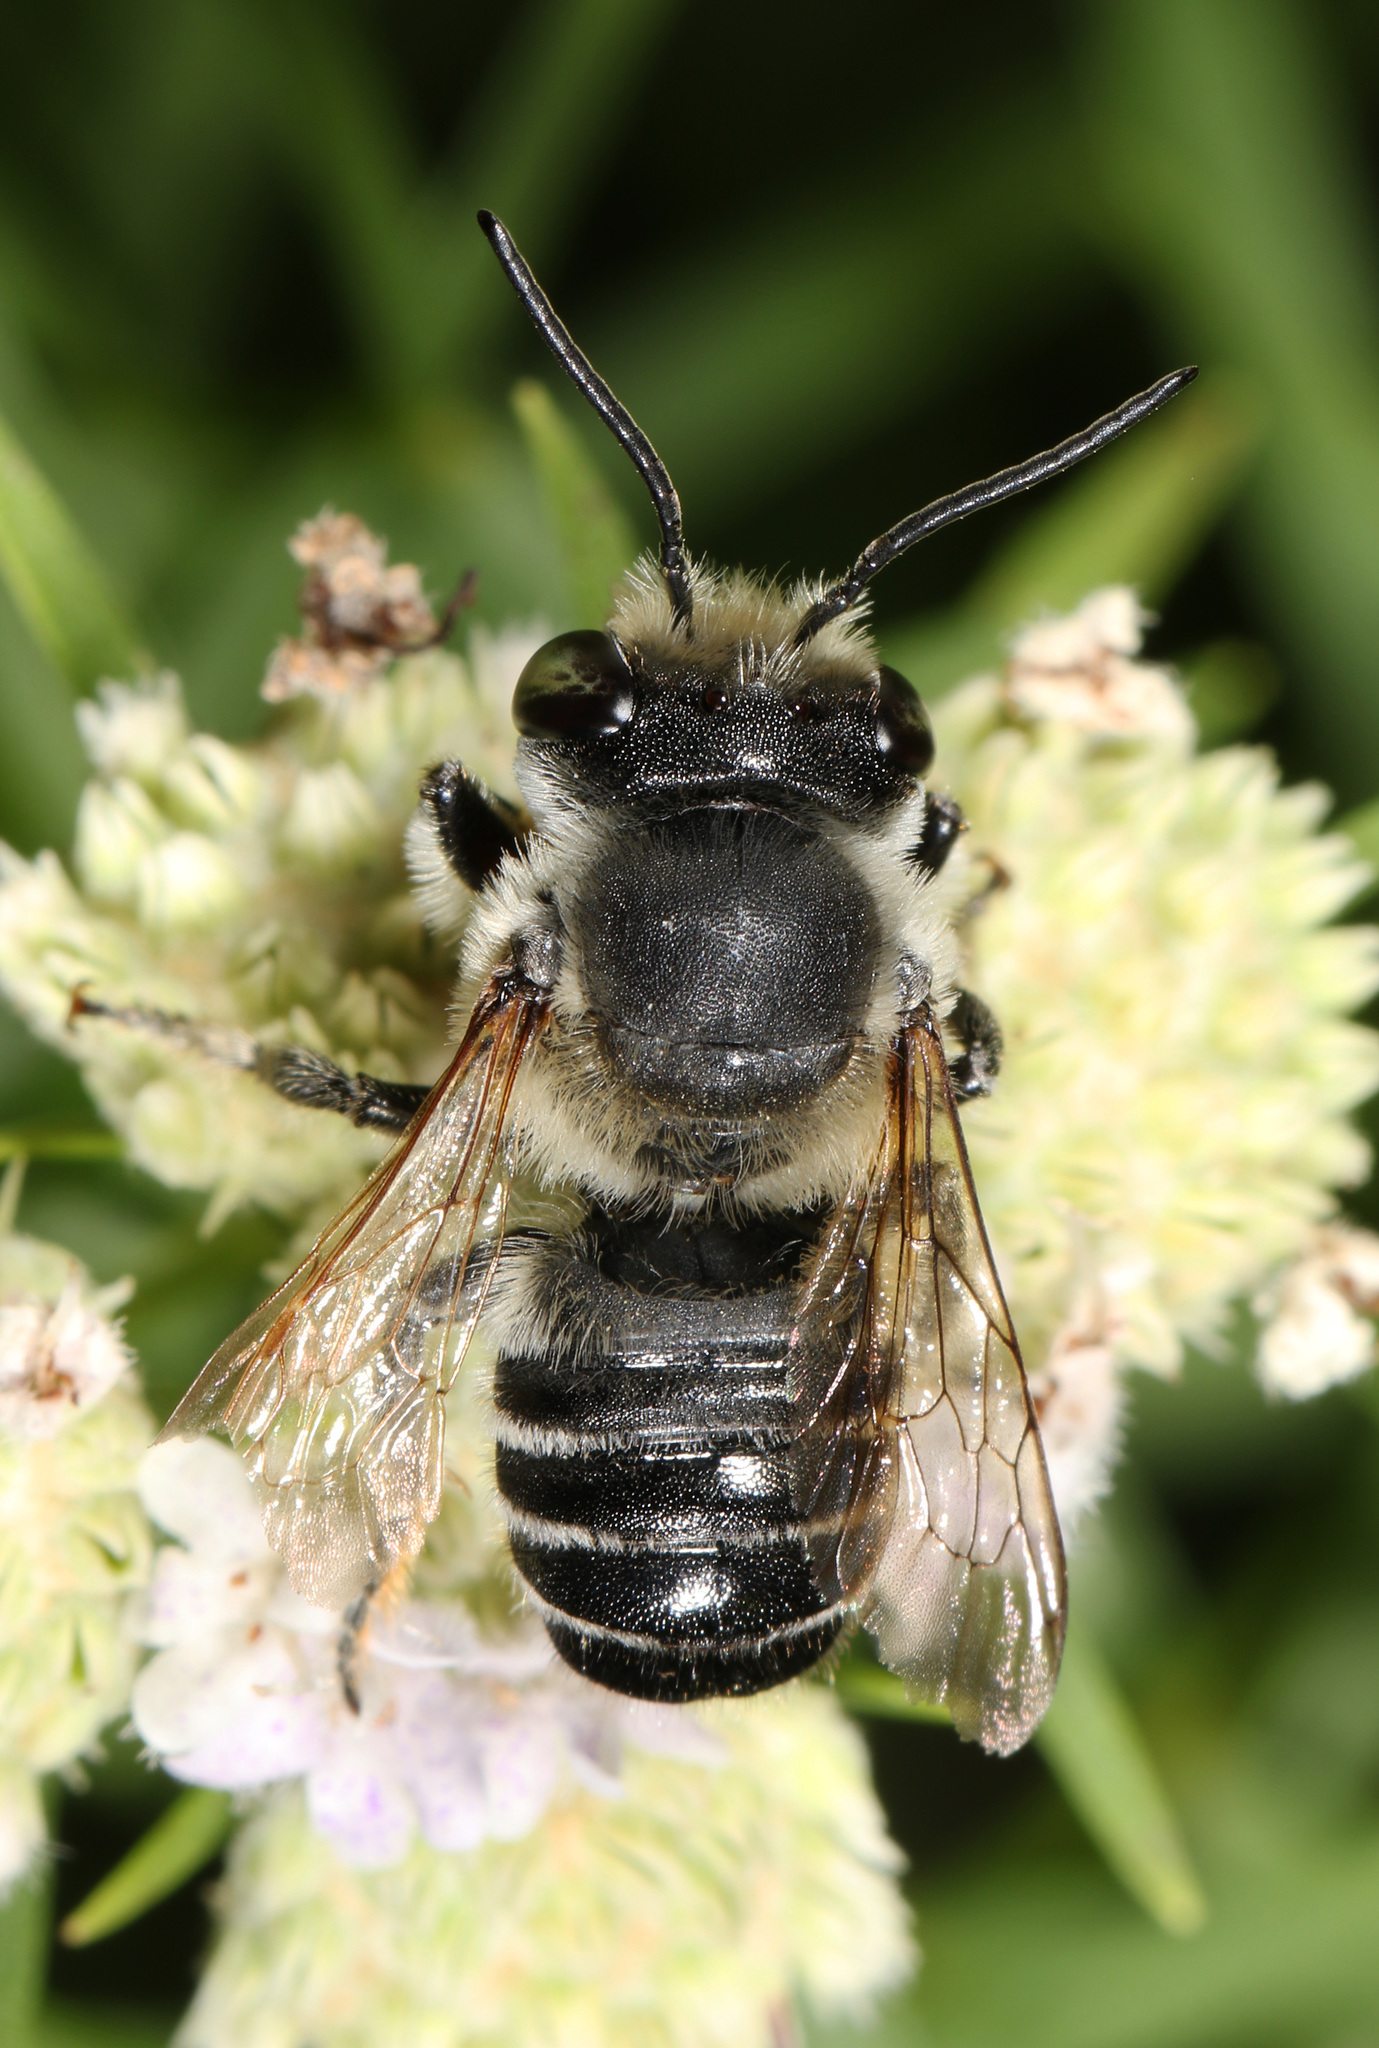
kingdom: Animalia
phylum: Arthropoda
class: Insecta
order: Hymenoptera
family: Megachilidae
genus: Megachile
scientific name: Megachile mendica
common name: Flat-tailed leafcutter
